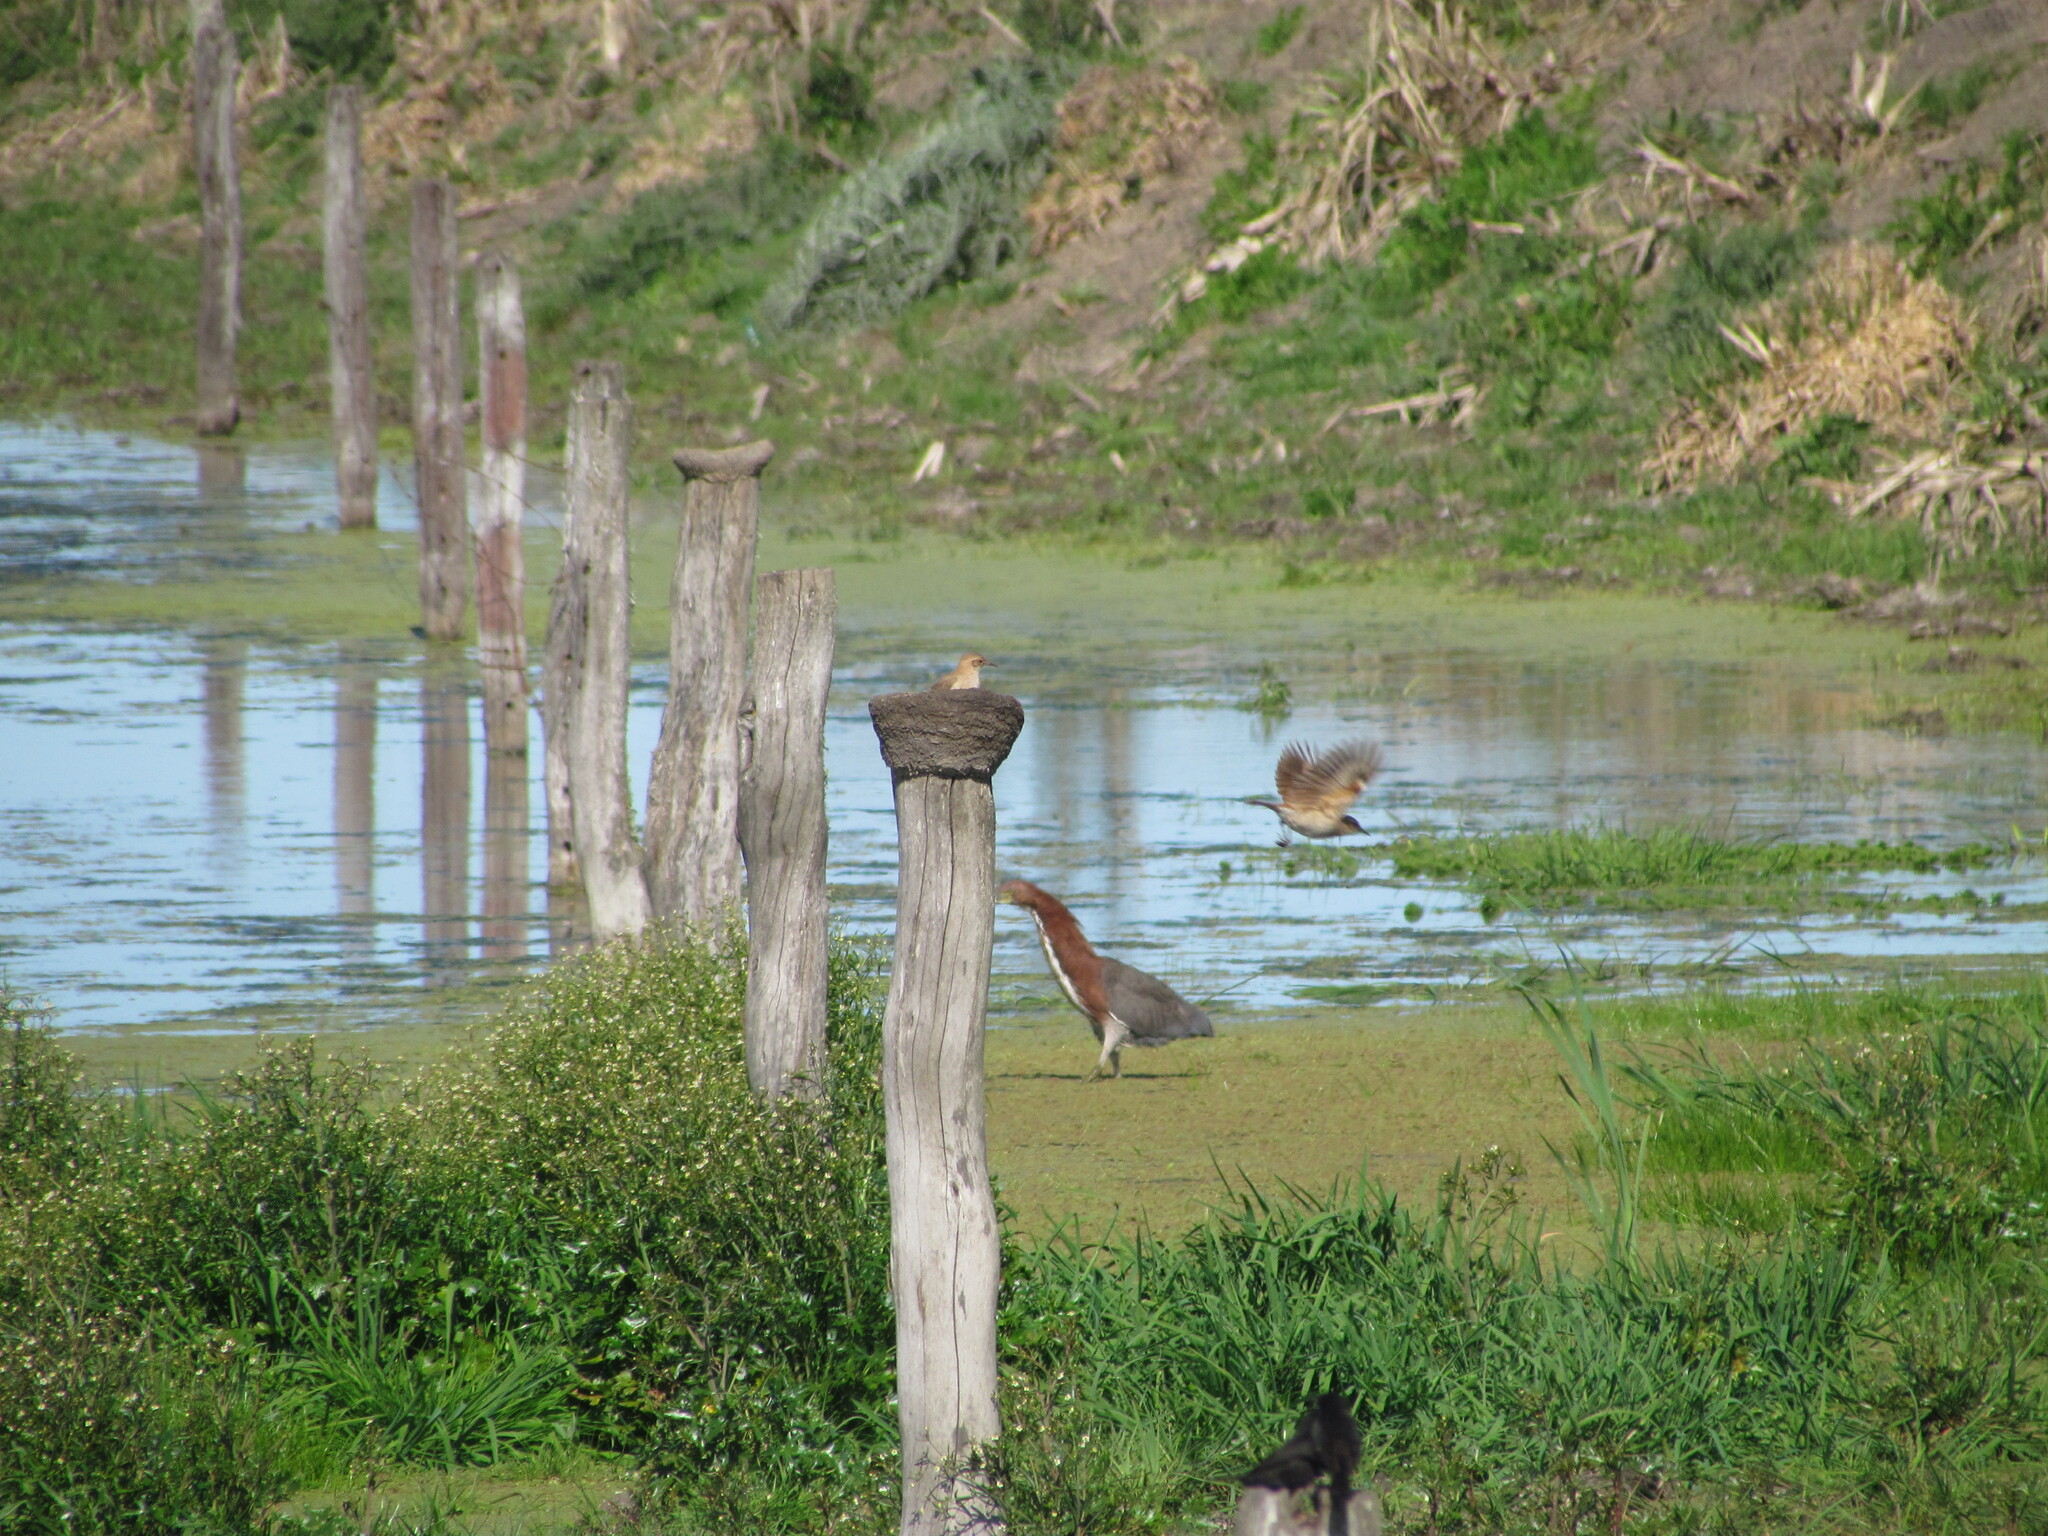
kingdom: Animalia
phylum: Chordata
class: Aves
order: Passeriformes
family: Furnariidae
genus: Furnarius
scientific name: Furnarius rufus
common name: Rufous hornero
